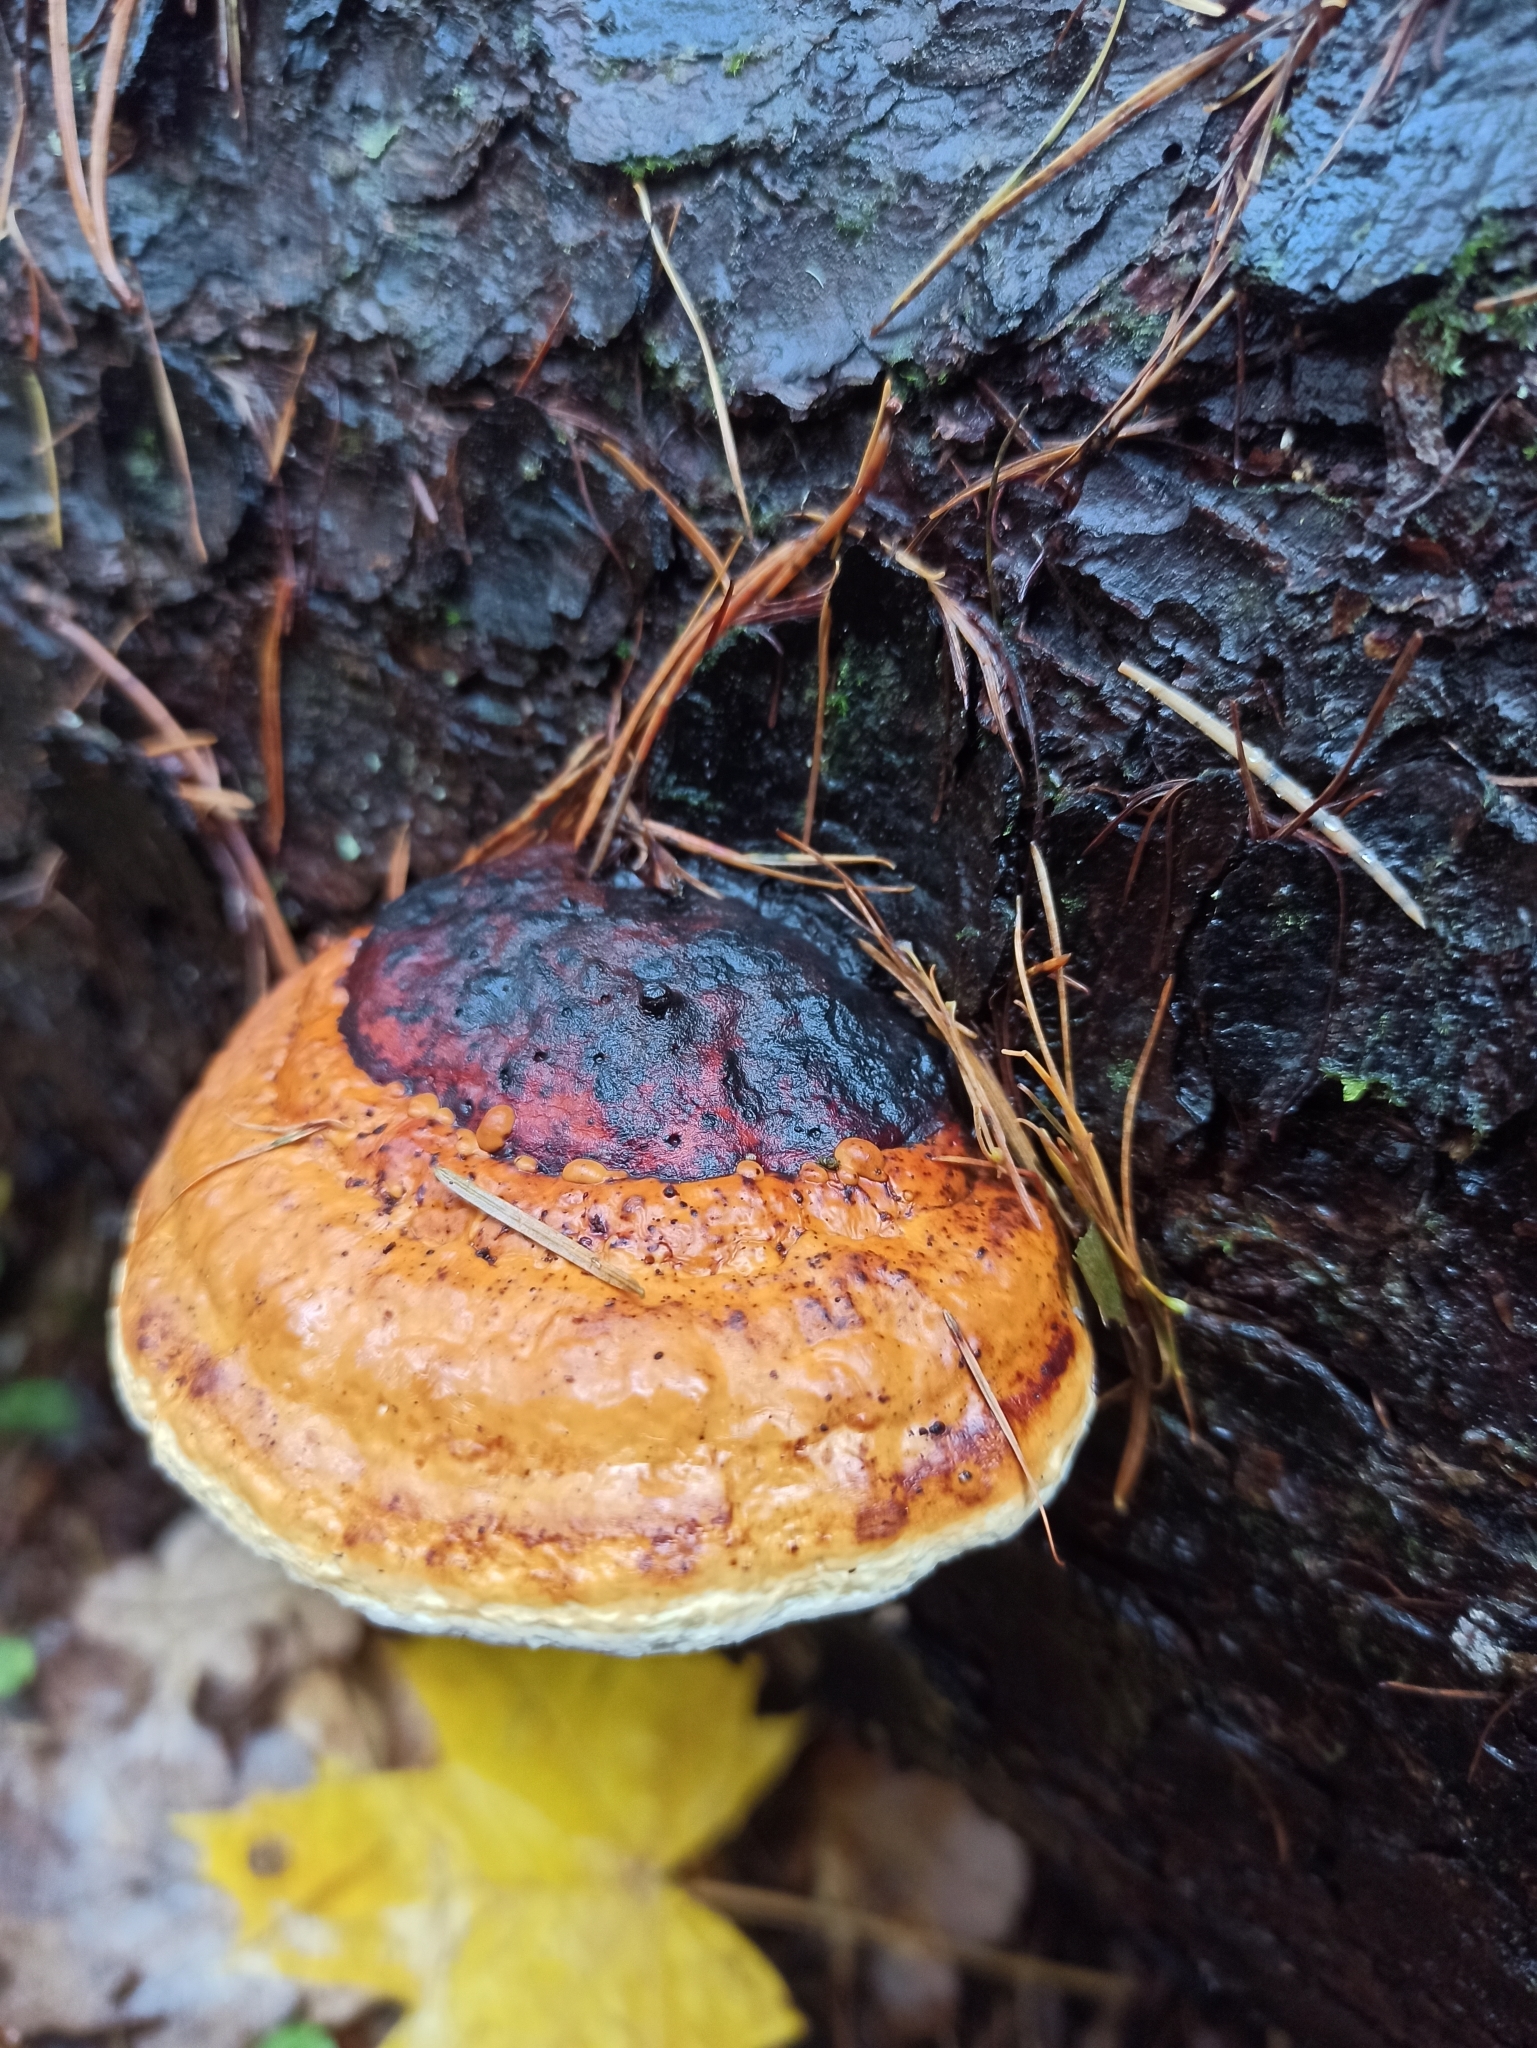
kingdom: Fungi
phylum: Basidiomycota
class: Agaricomycetes
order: Polyporales
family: Fomitopsidaceae
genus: Fomitopsis
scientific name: Fomitopsis pinicola
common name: Red-belted bracket
